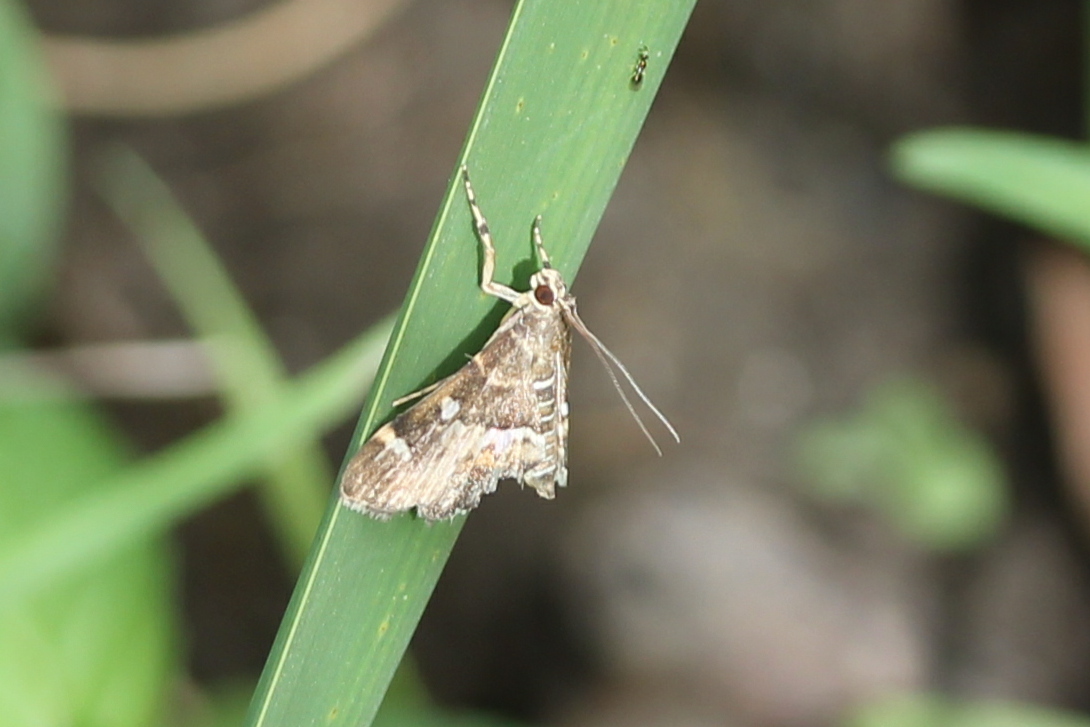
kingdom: Animalia
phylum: Arthropoda
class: Insecta
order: Lepidoptera
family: Crambidae
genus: Hymenia
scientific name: Hymenia perspectalis
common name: Spotted beet webworm
